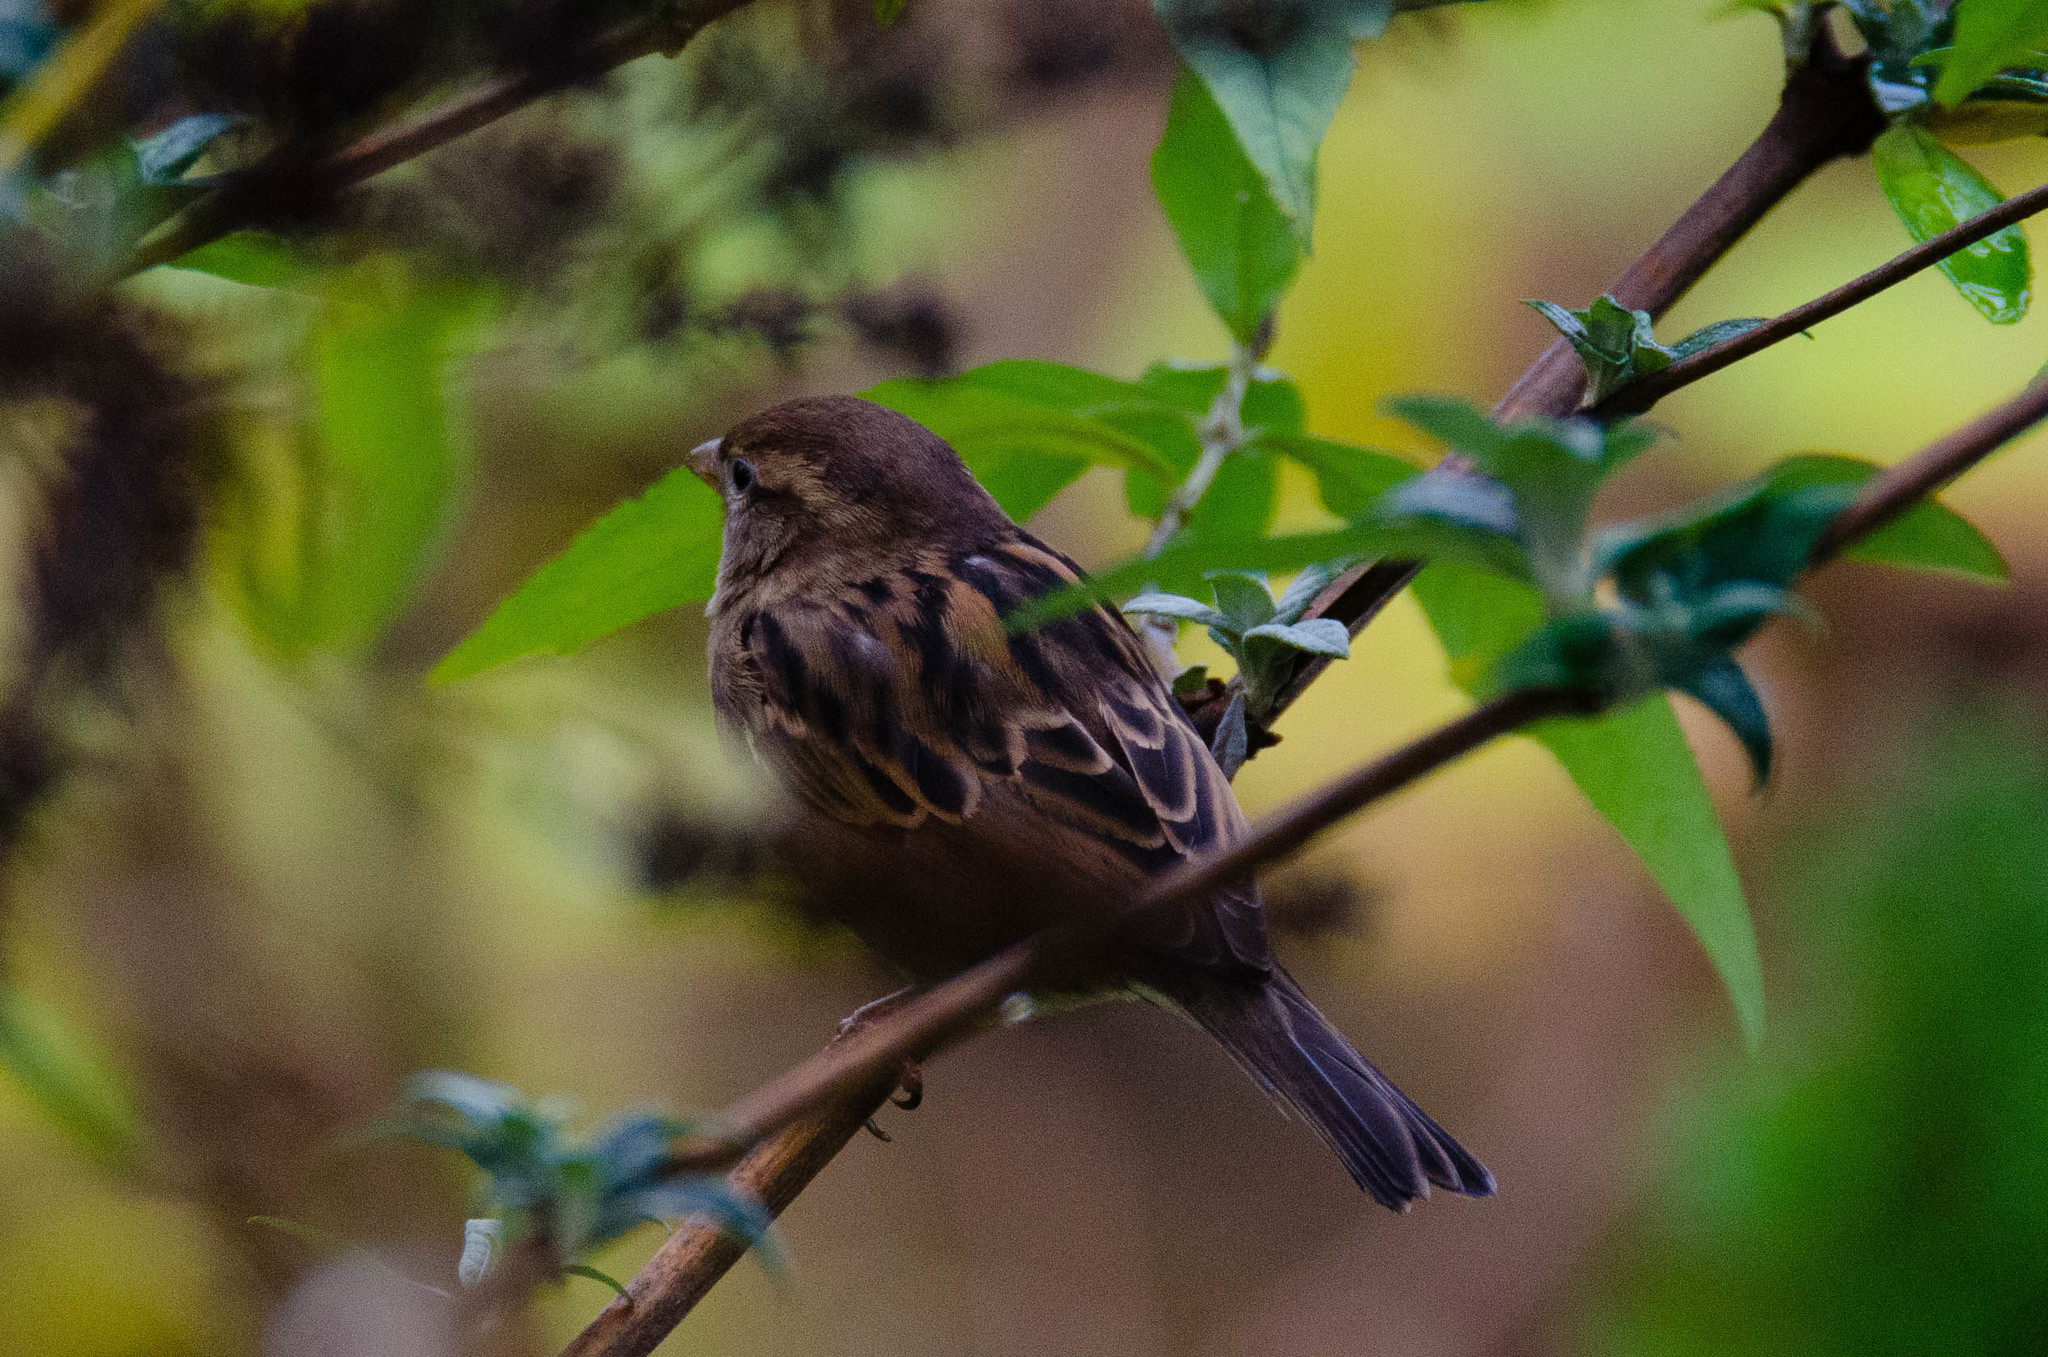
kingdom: Animalia
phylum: Chordata
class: Aves
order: Passeriformes
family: Passeridae
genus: Passer
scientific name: Passer domesticus
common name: House sparrow
